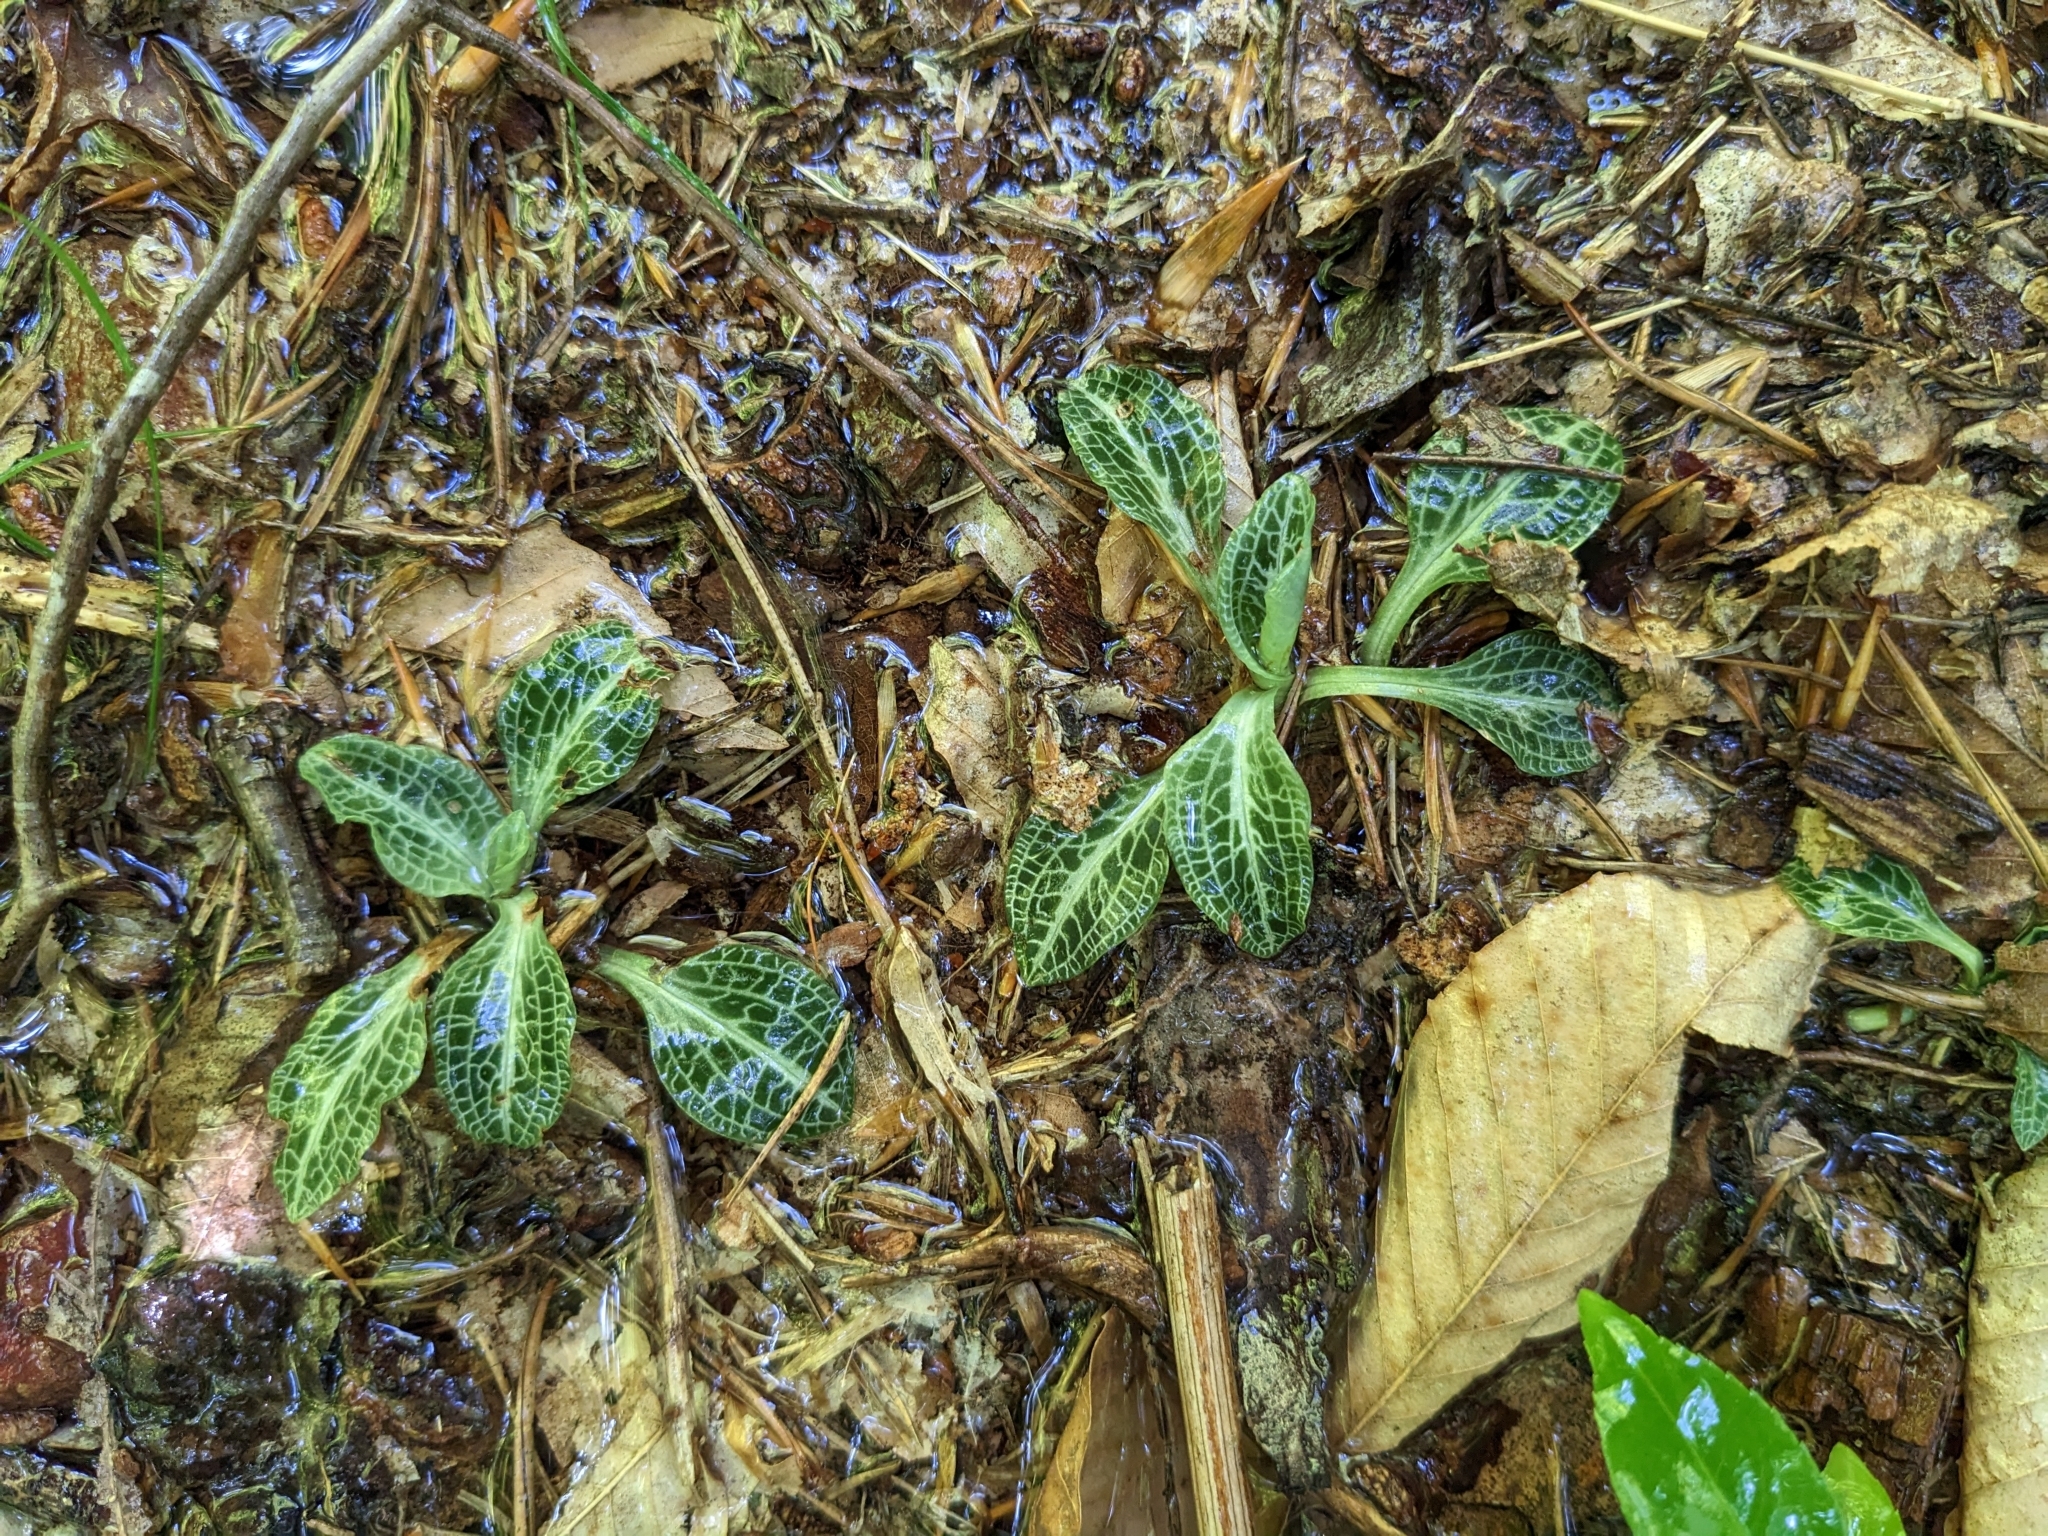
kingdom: Plantae
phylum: Tracheophyta
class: Liliopsida
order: Asparagales
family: Orchidaceae
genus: Goodyera
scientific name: Goodyera pubescens
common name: Downy rattlesnake-plantain
